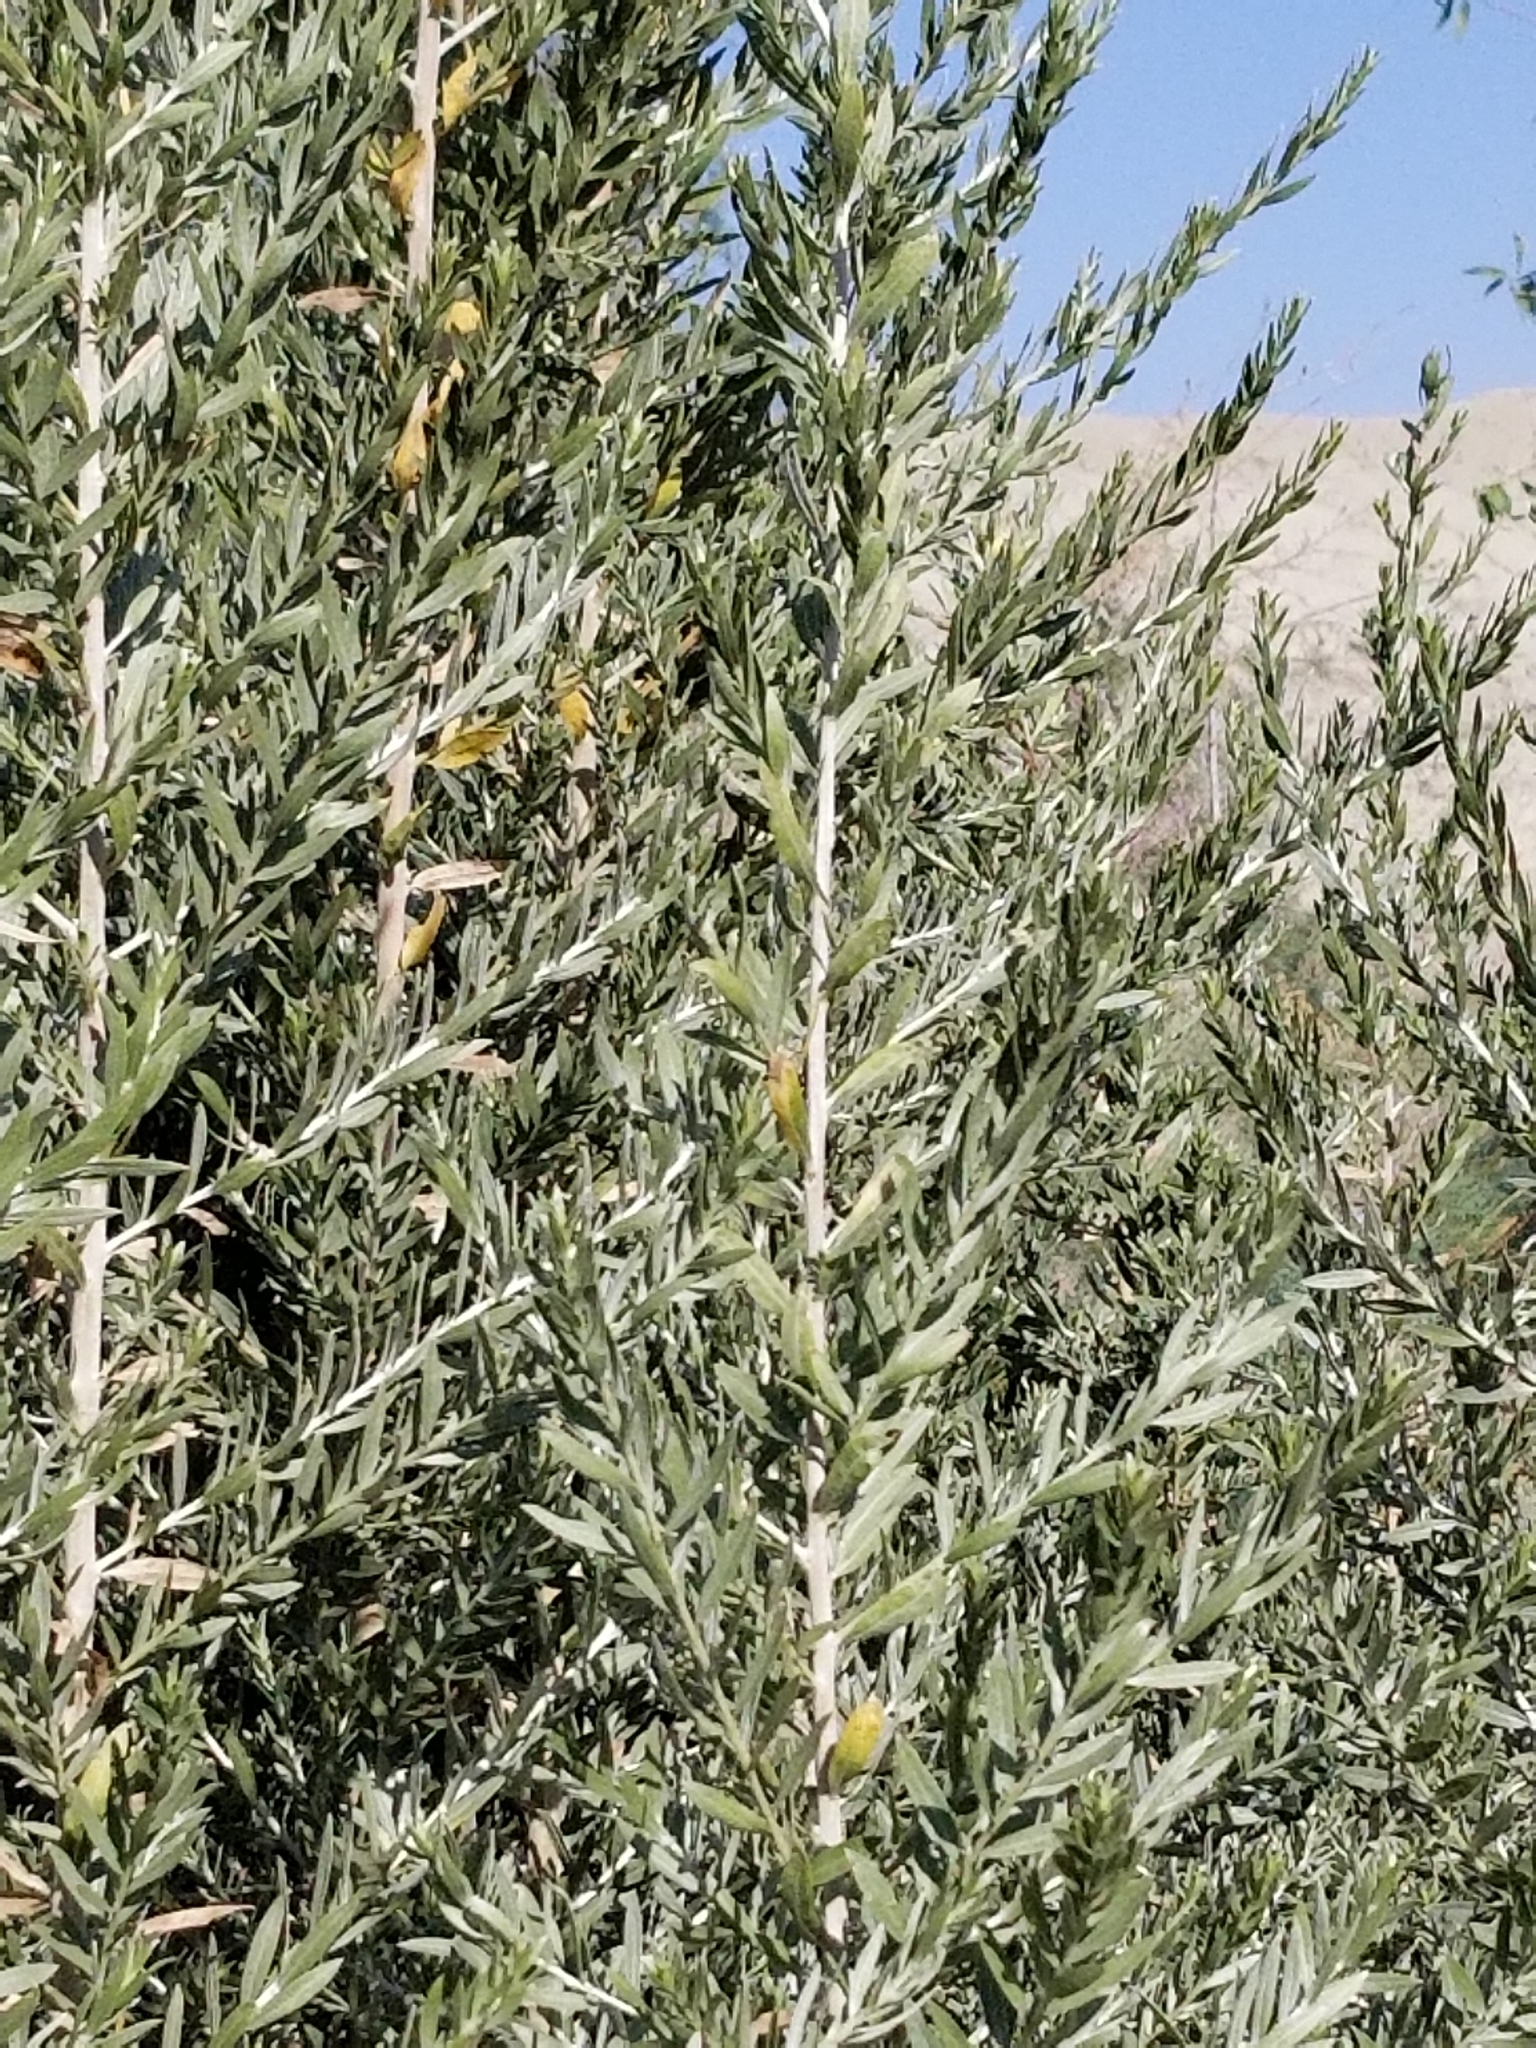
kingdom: Plantae
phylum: Tracheophyta
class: Magnoliopsida
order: Asterales
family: Asteraceae
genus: Pluchea
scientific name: Pluchea sericea
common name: Arrow-weed
